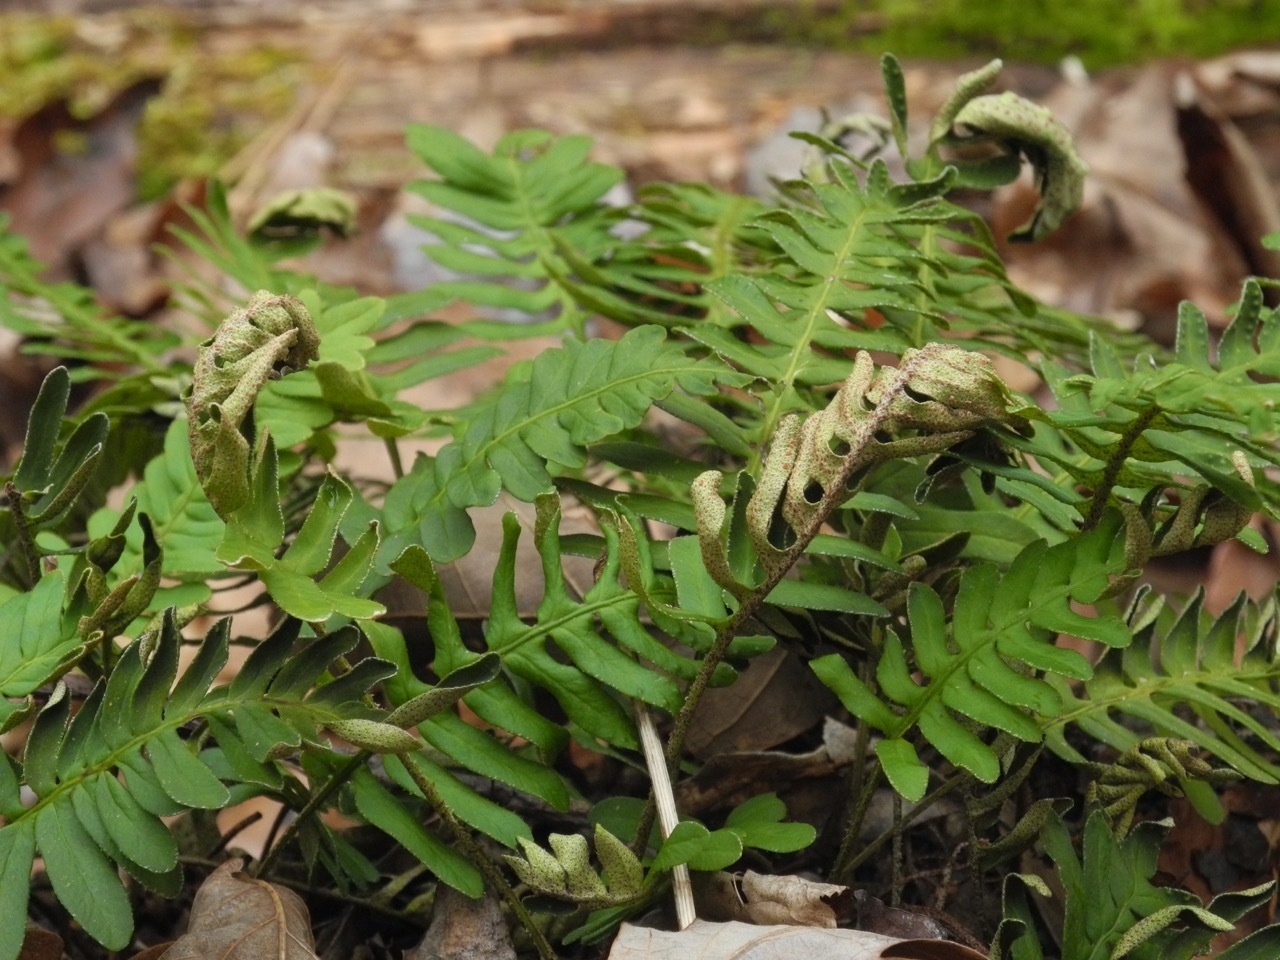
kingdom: Plantae
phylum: Tracheophyta
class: Polypodiopsida
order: Polypodiales
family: Polypodiaceae
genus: Pleopeltis
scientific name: Pleopeltis michauxiana
